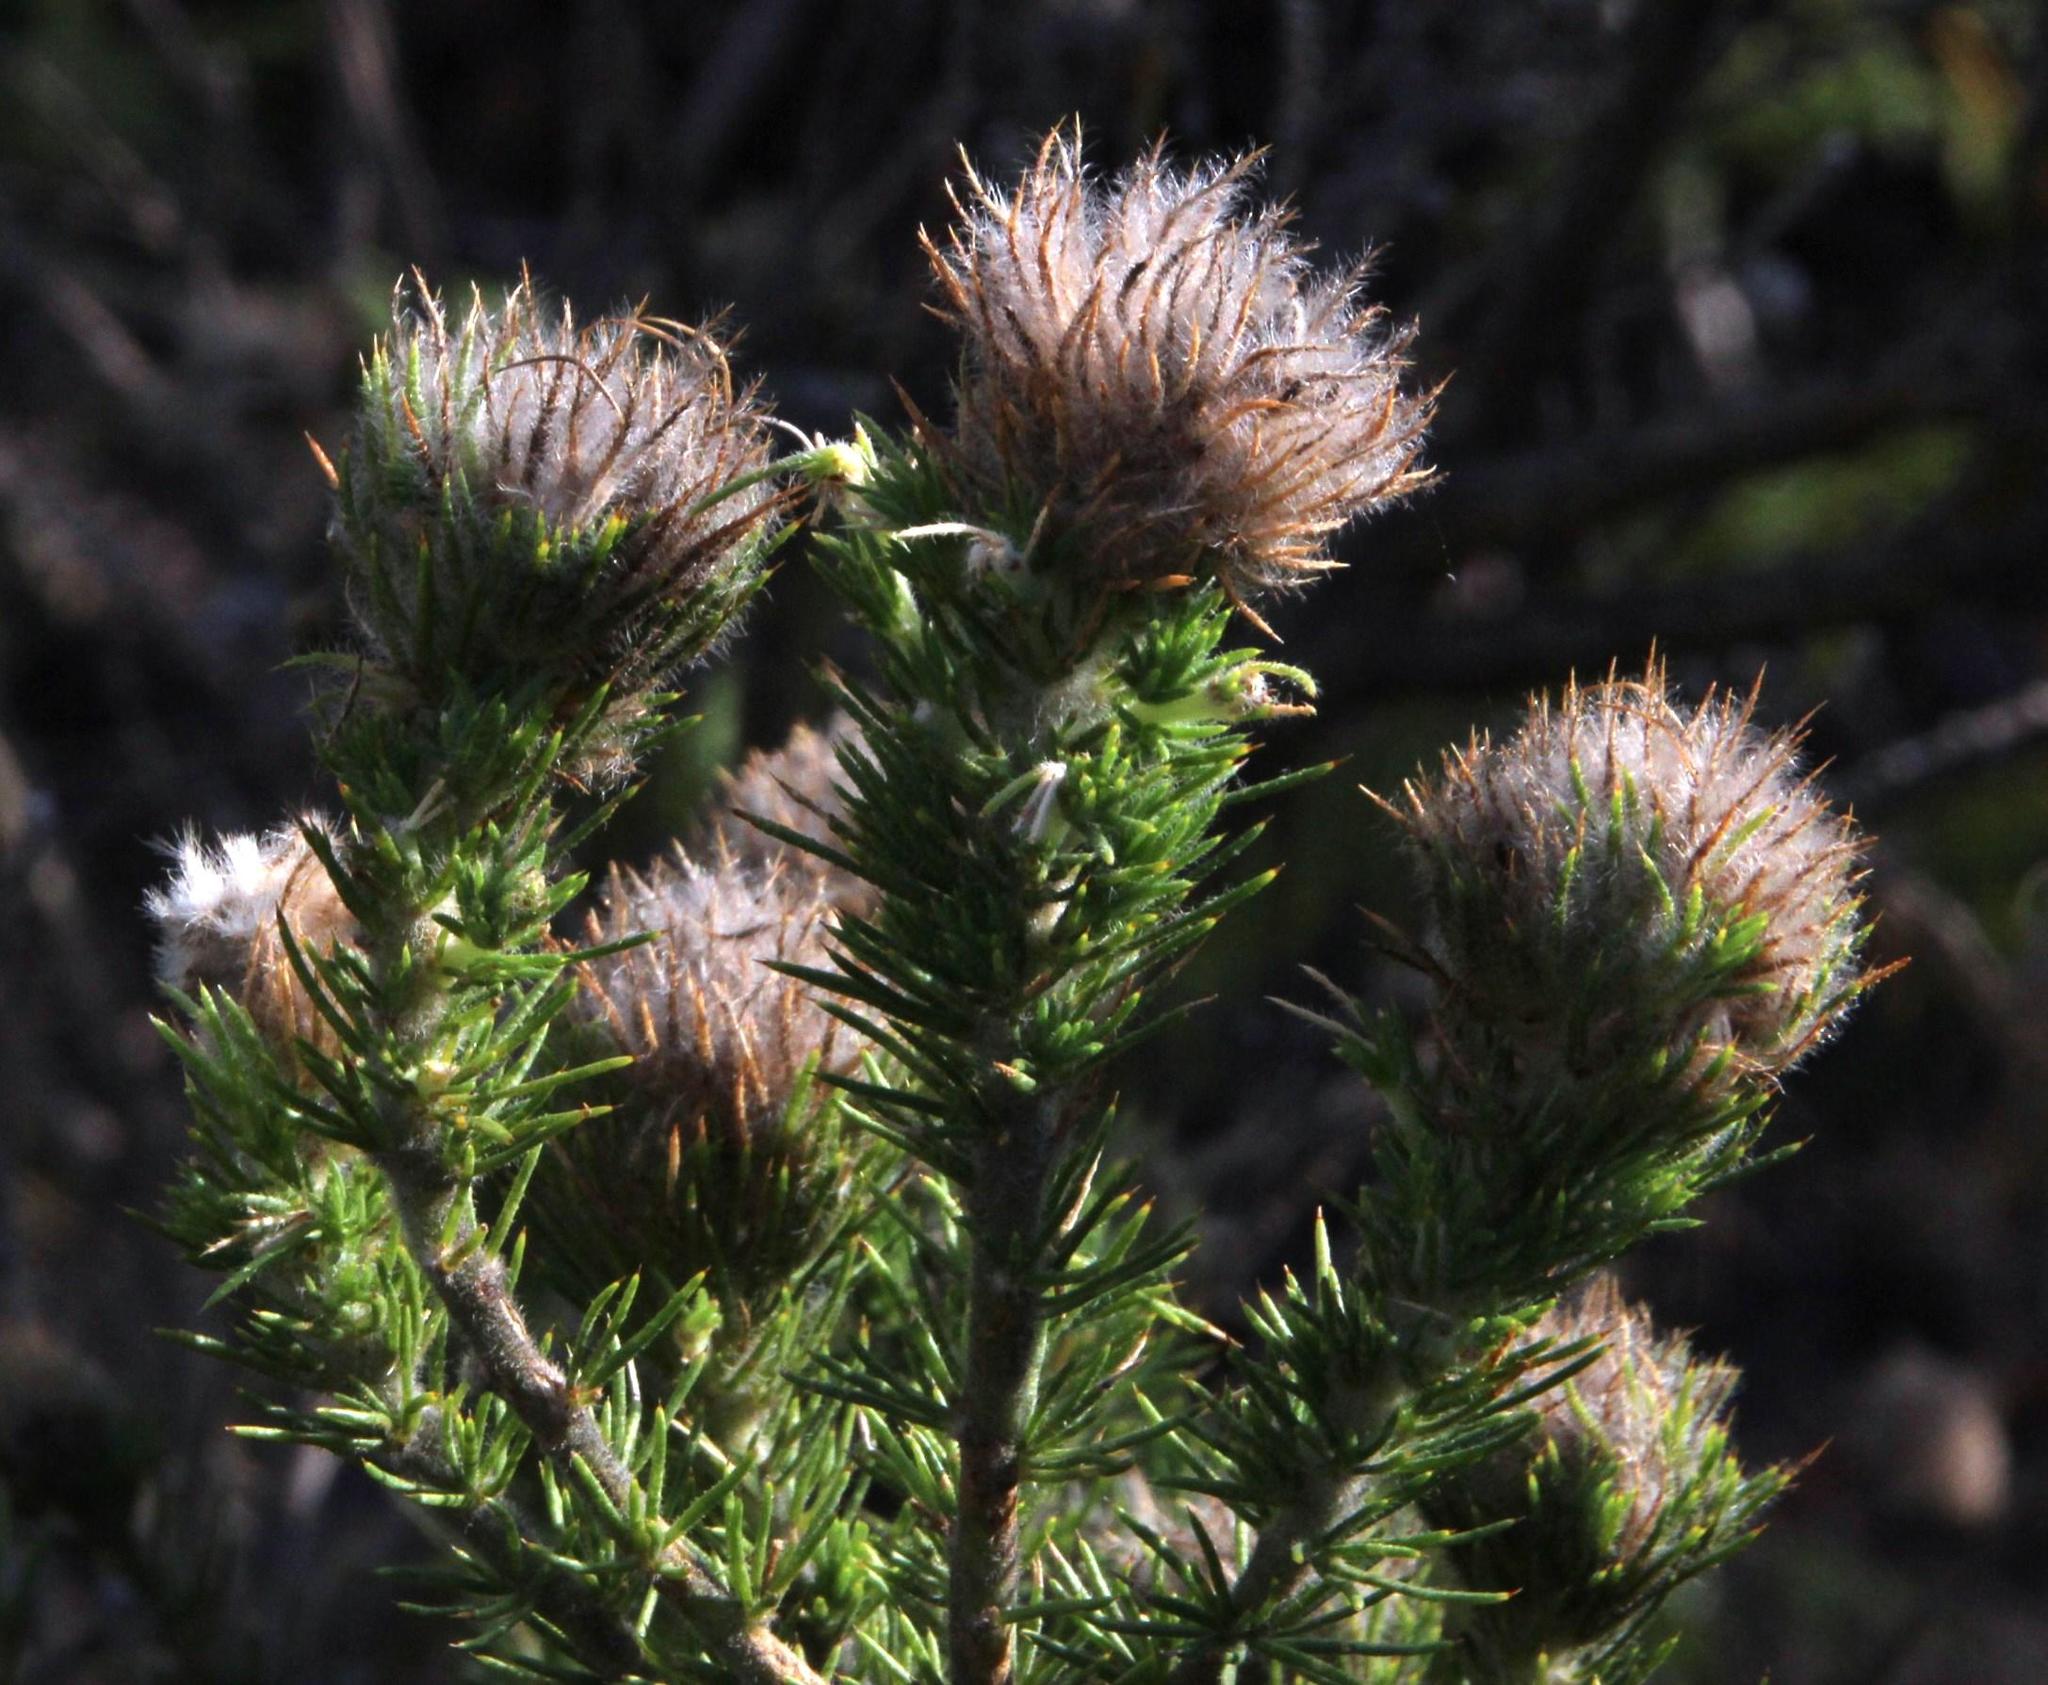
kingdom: Plantae
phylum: Tracheophyta
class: Magnoliopsida
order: Fabales
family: Fabaceae
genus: Aspalathus
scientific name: Aspalathus chenopoda
